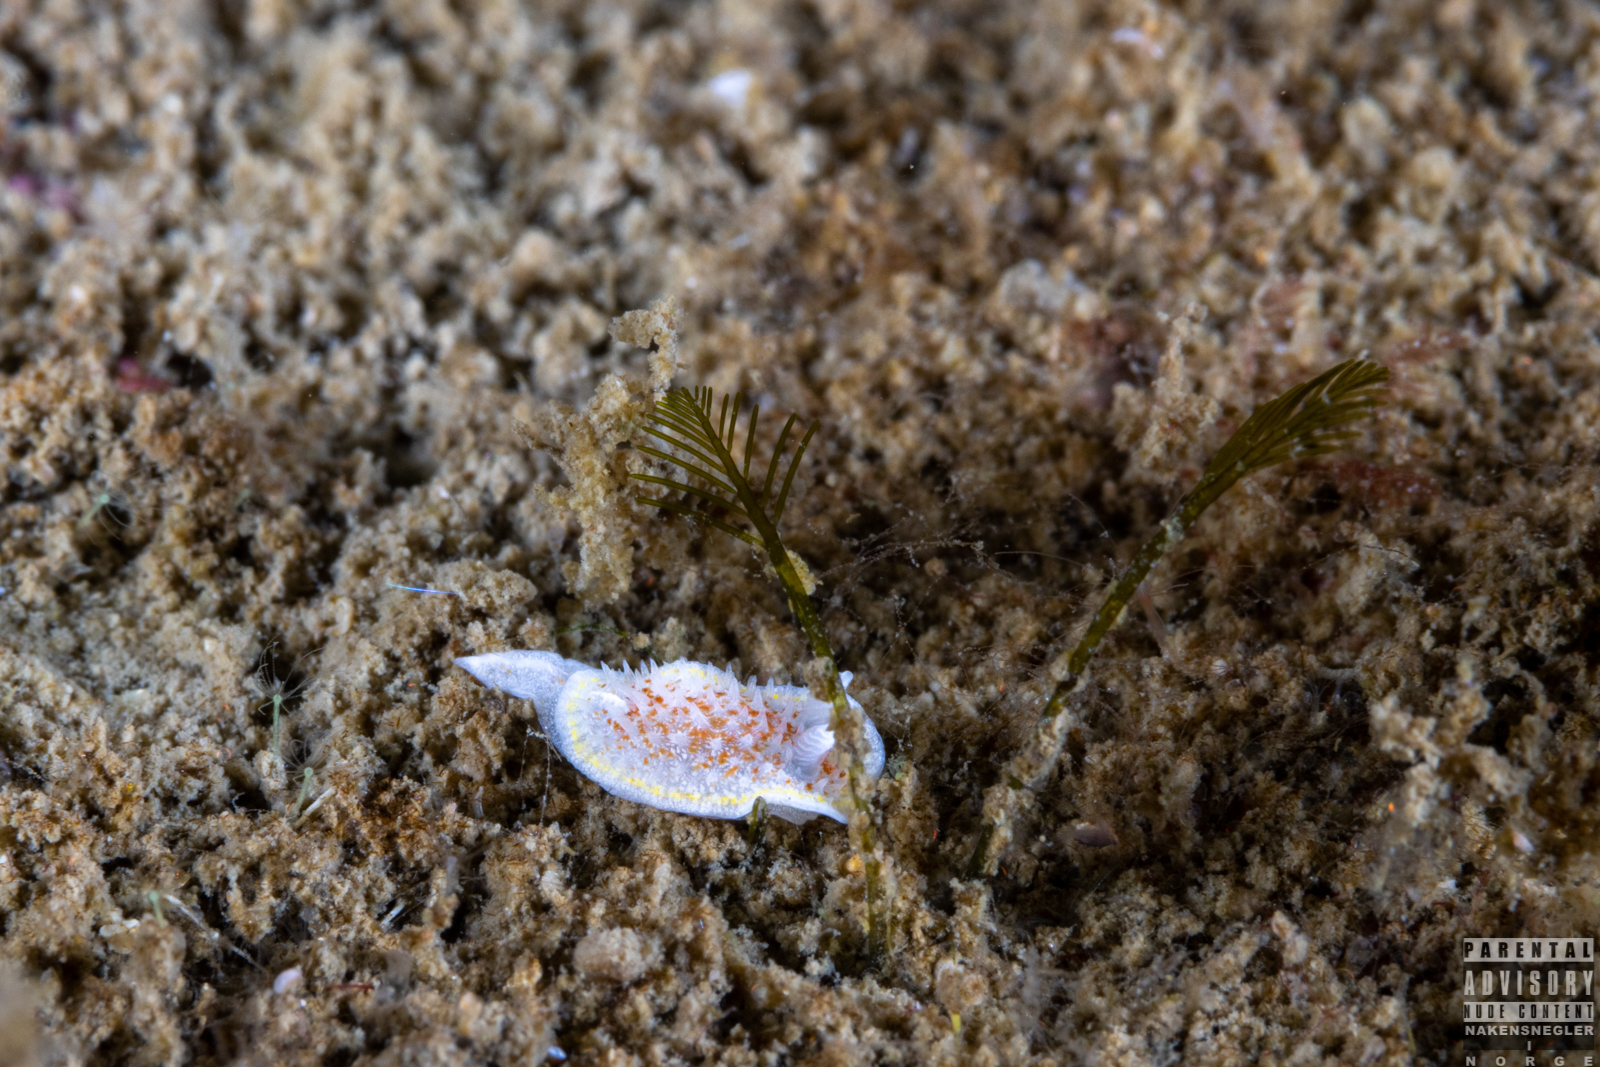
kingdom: Animalia
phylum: Mollusca
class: Gastropoda
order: Nudibranchia
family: Calycidorididae
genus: Diaphorodoris
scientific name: Diaphorodoris luteocincta
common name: Fried egg nudibranch
